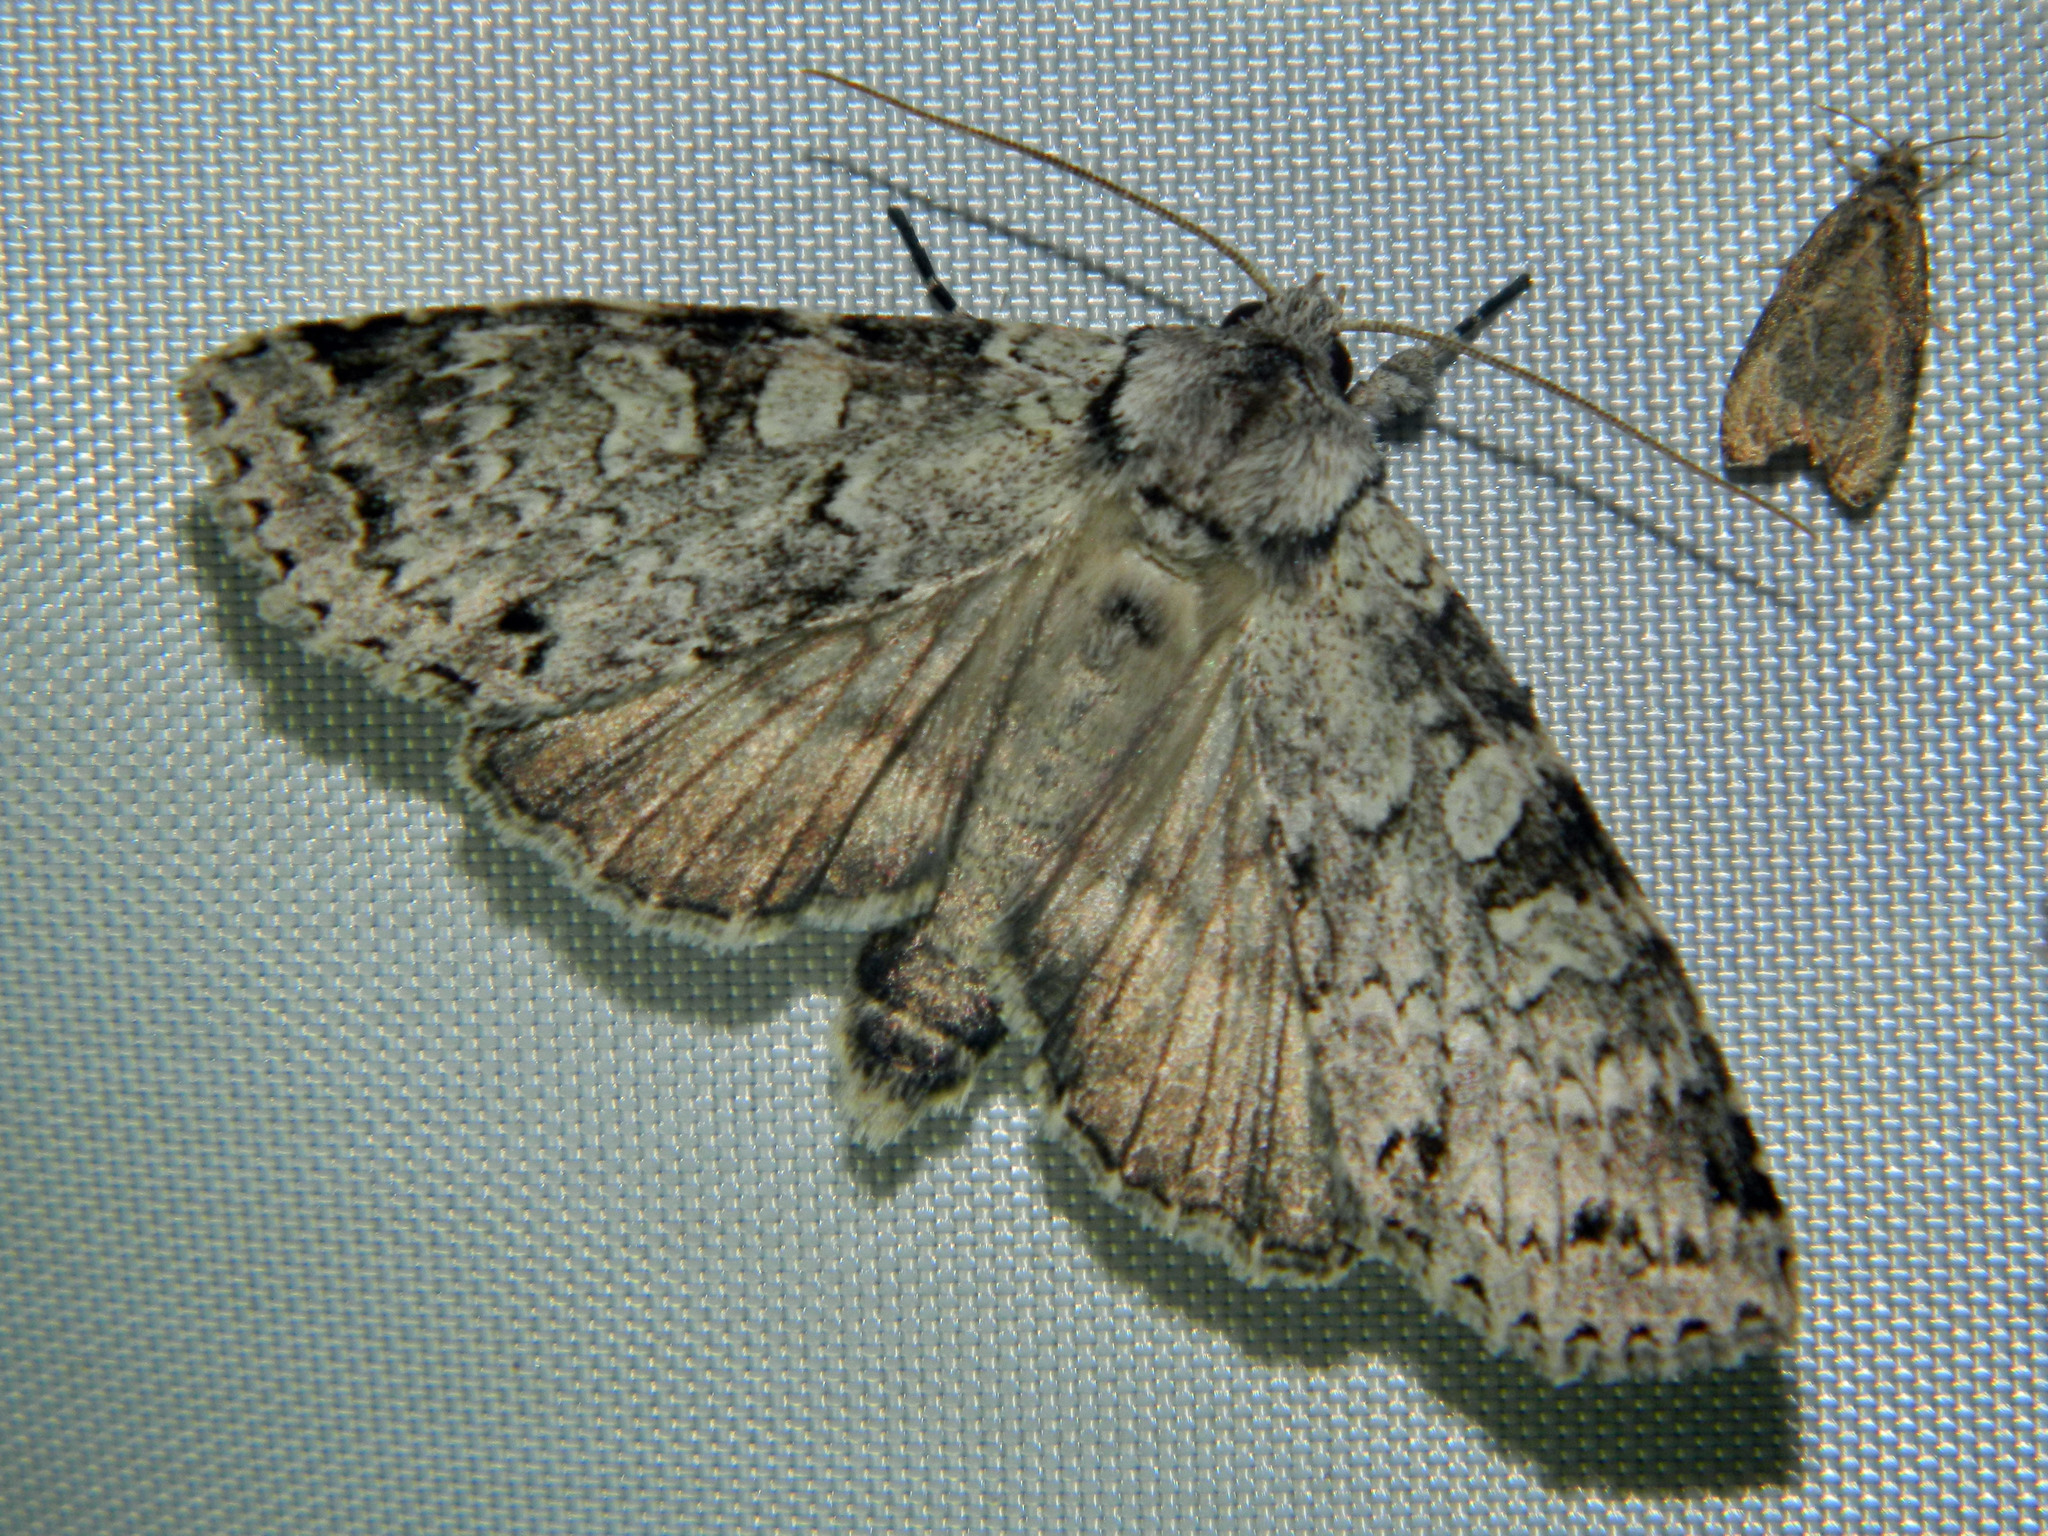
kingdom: Animalia
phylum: Arthropoda
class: Insecta
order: Lepidoptera
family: Noctuidae
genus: Polia
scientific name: Polia nimbosa
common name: Stormy arches
